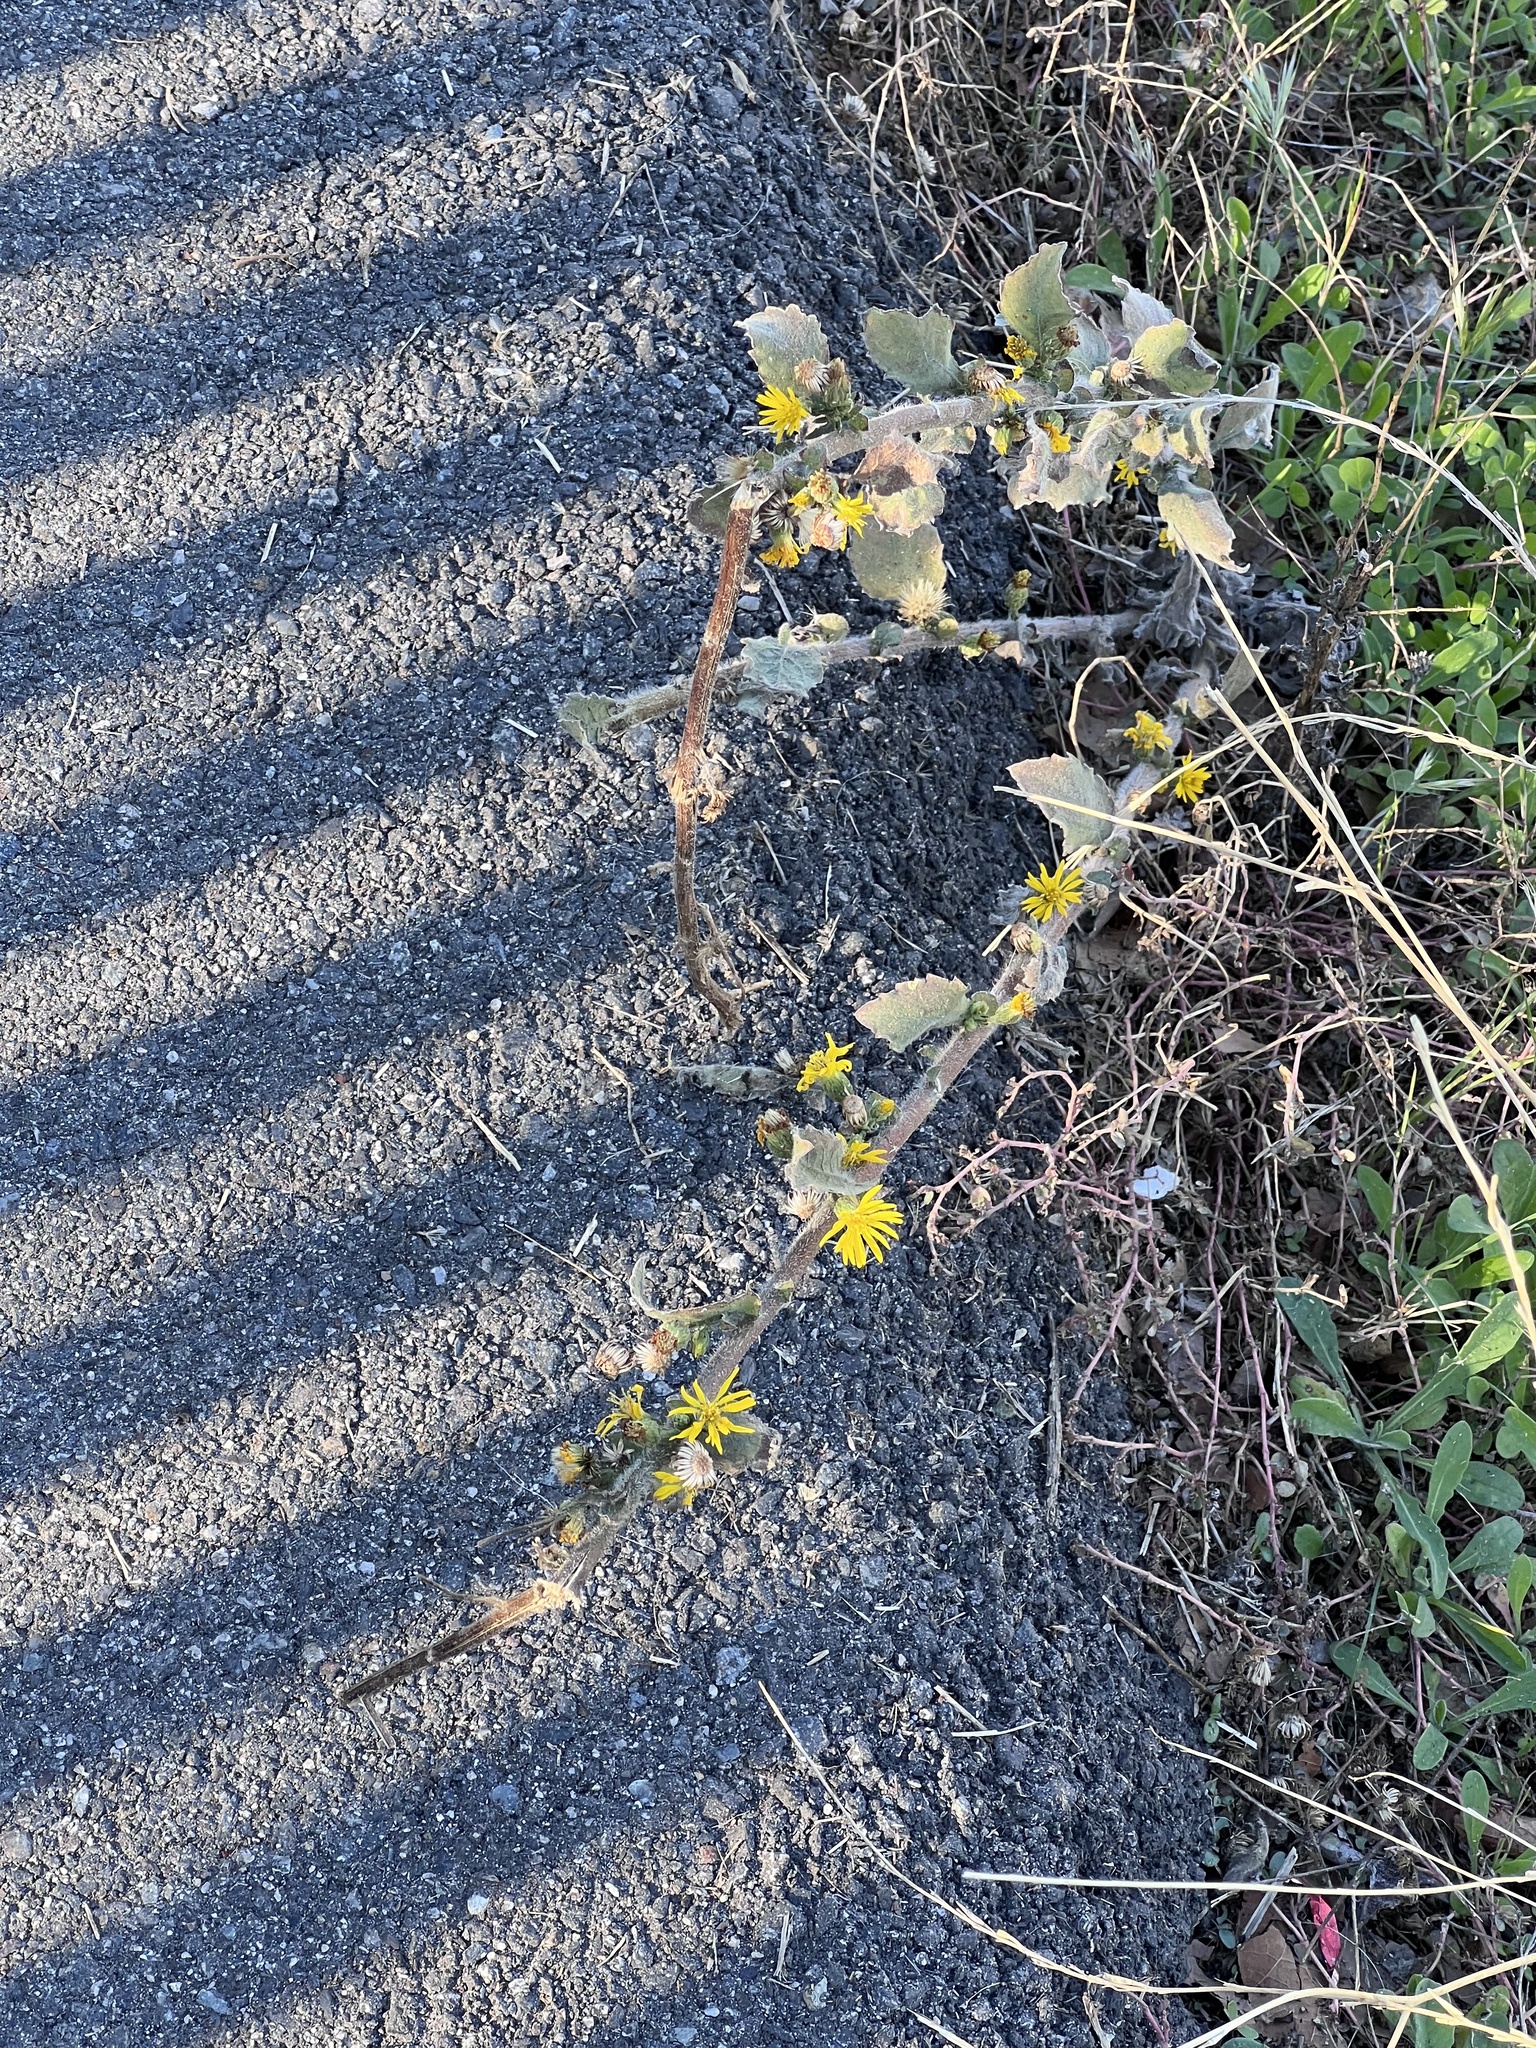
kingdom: Plantae
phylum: Tracheophyta
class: Magnoliopsida
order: Asterales
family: Asteraceae
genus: Heterotheca
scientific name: Heterotheca grandiflora
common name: Telegraphweed
